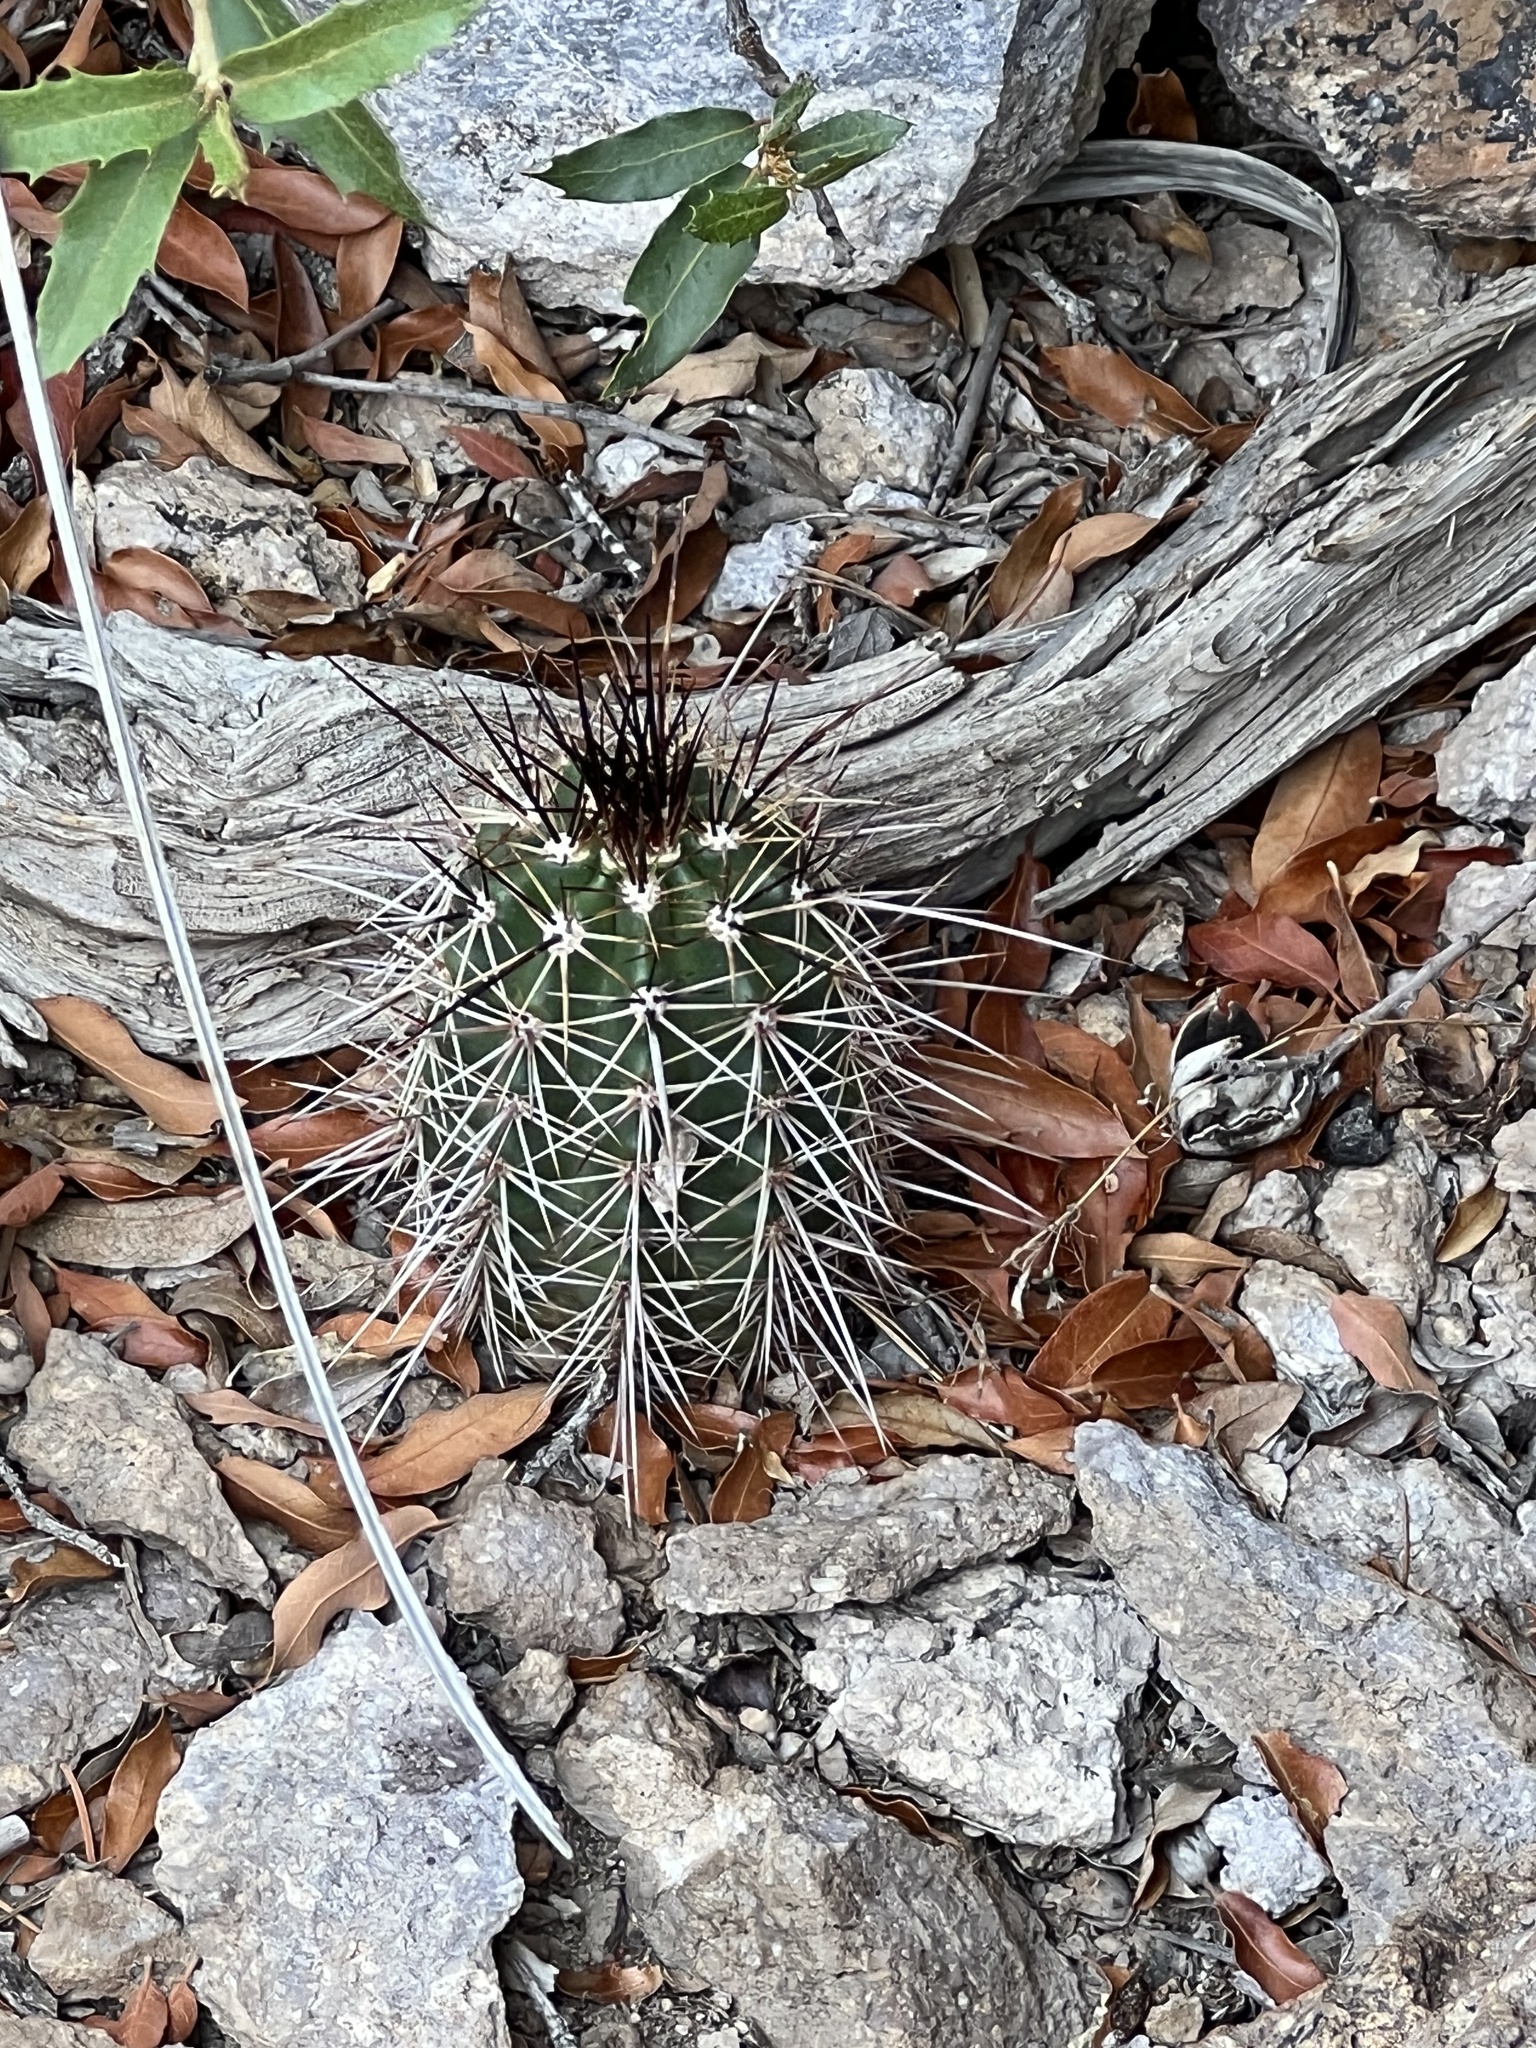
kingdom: Plantae
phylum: Tracheophyta
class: Magnoliopsida
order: Caryophyllales
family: Cactaceae
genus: Echinocereus
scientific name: Echinocereus coccineus
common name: Scarlet hedgehog cactus
